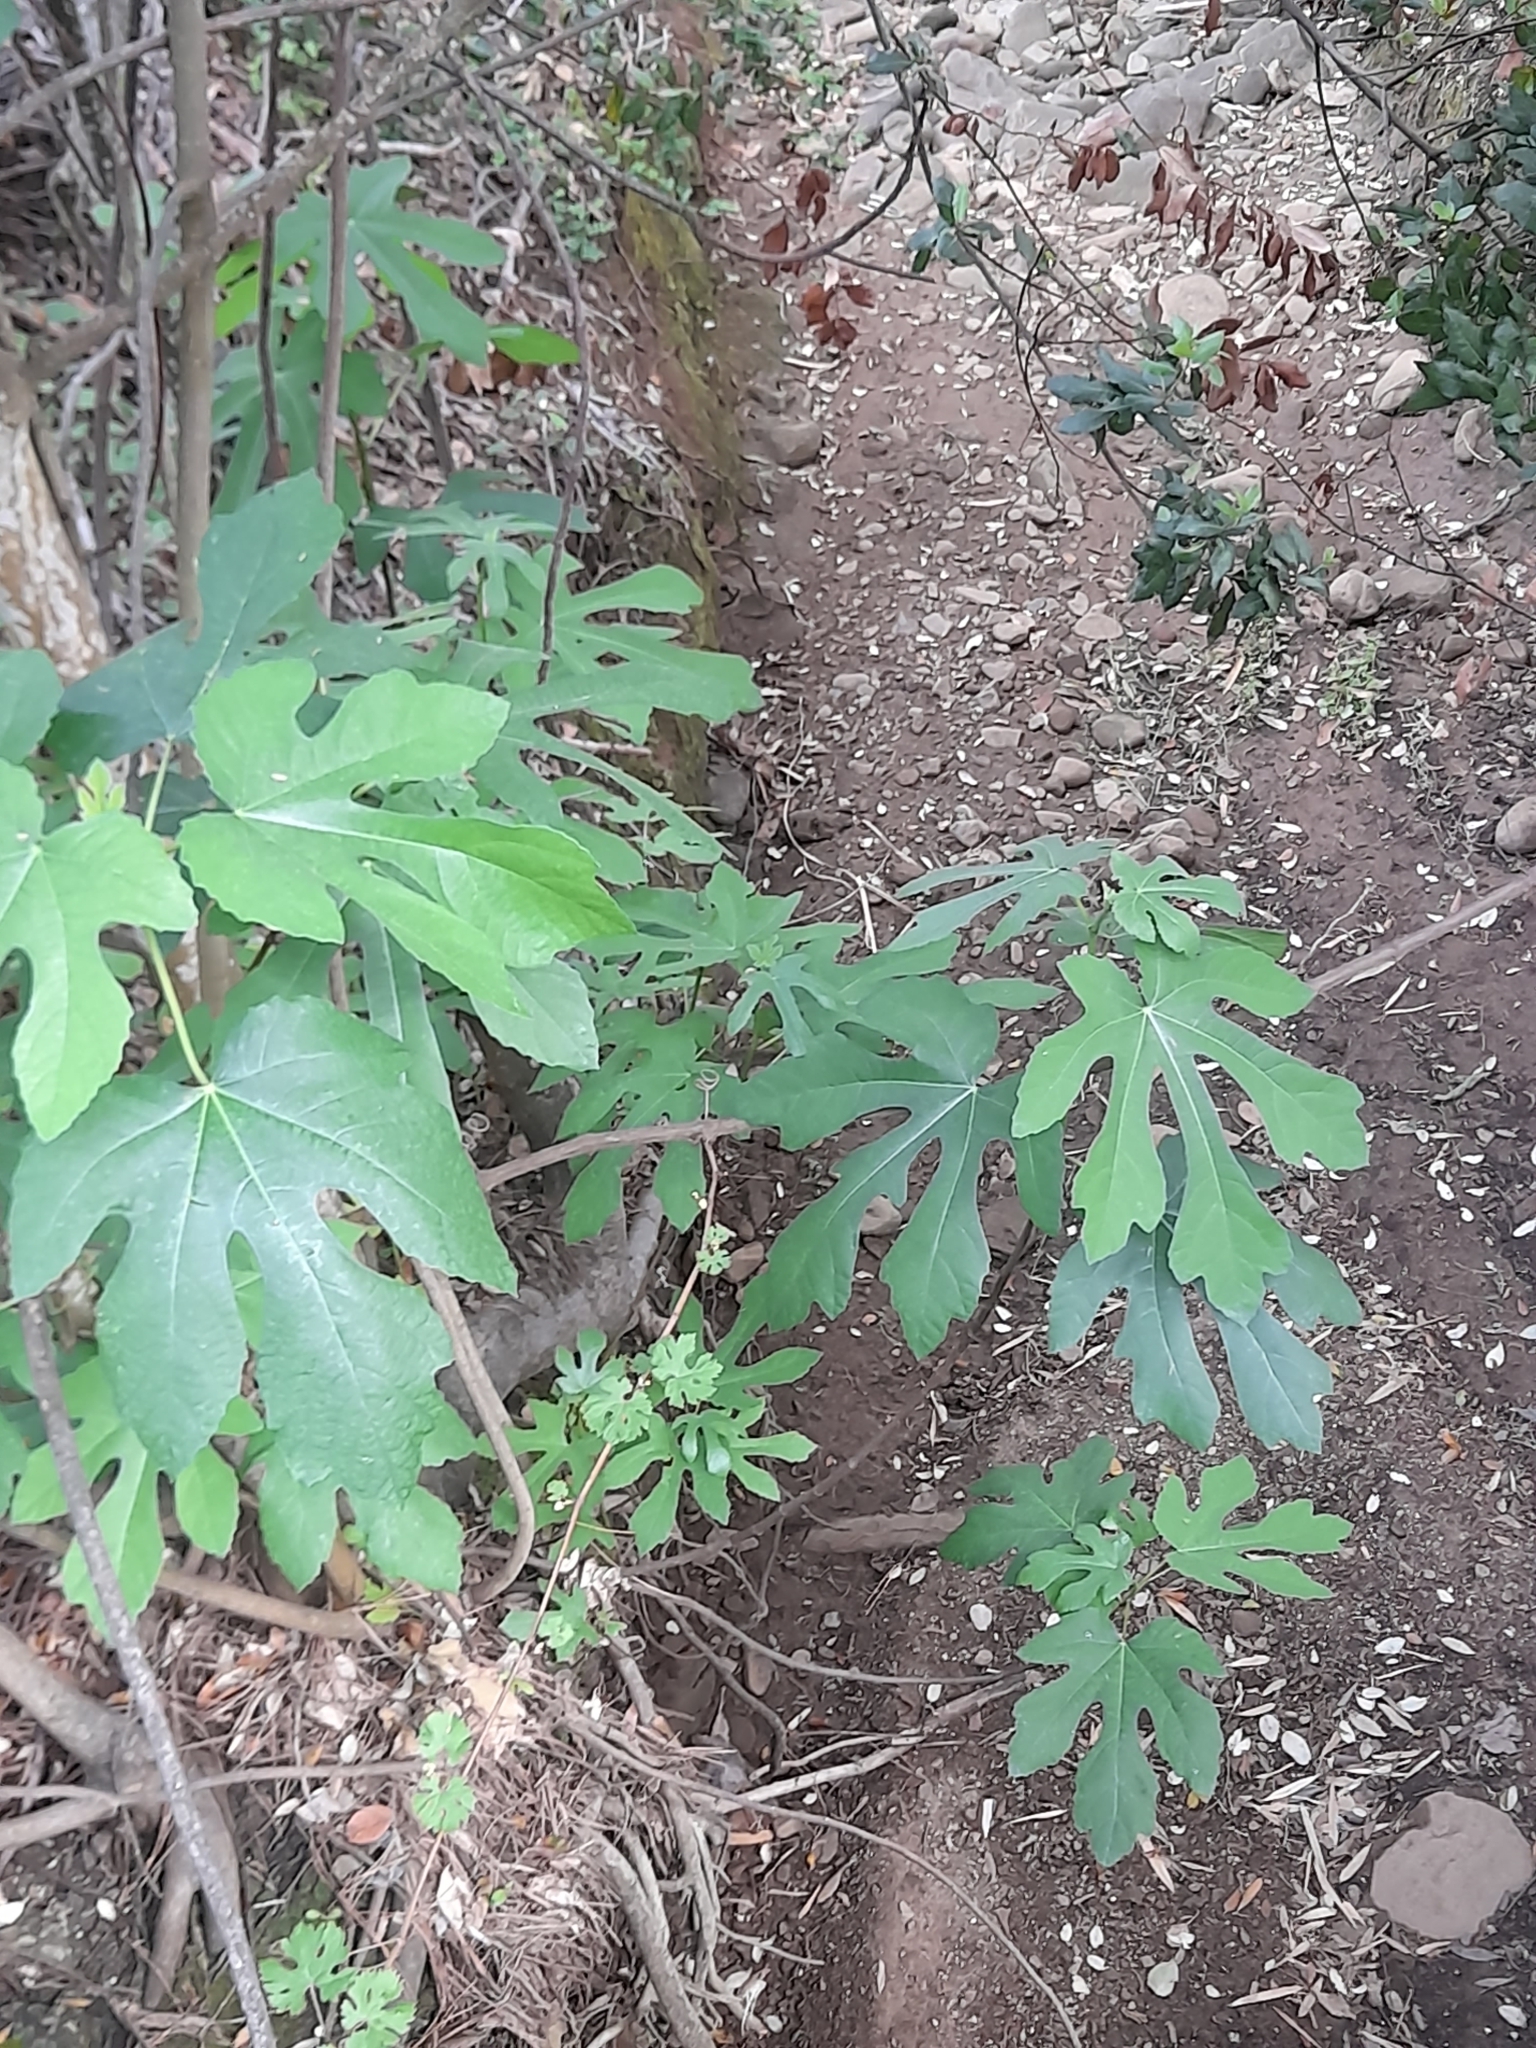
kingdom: Plantae
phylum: Tracheophyta
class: Magnoliopsida
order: Rosales
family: Moraceae
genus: Ficus
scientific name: Ficus carica
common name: Fig
